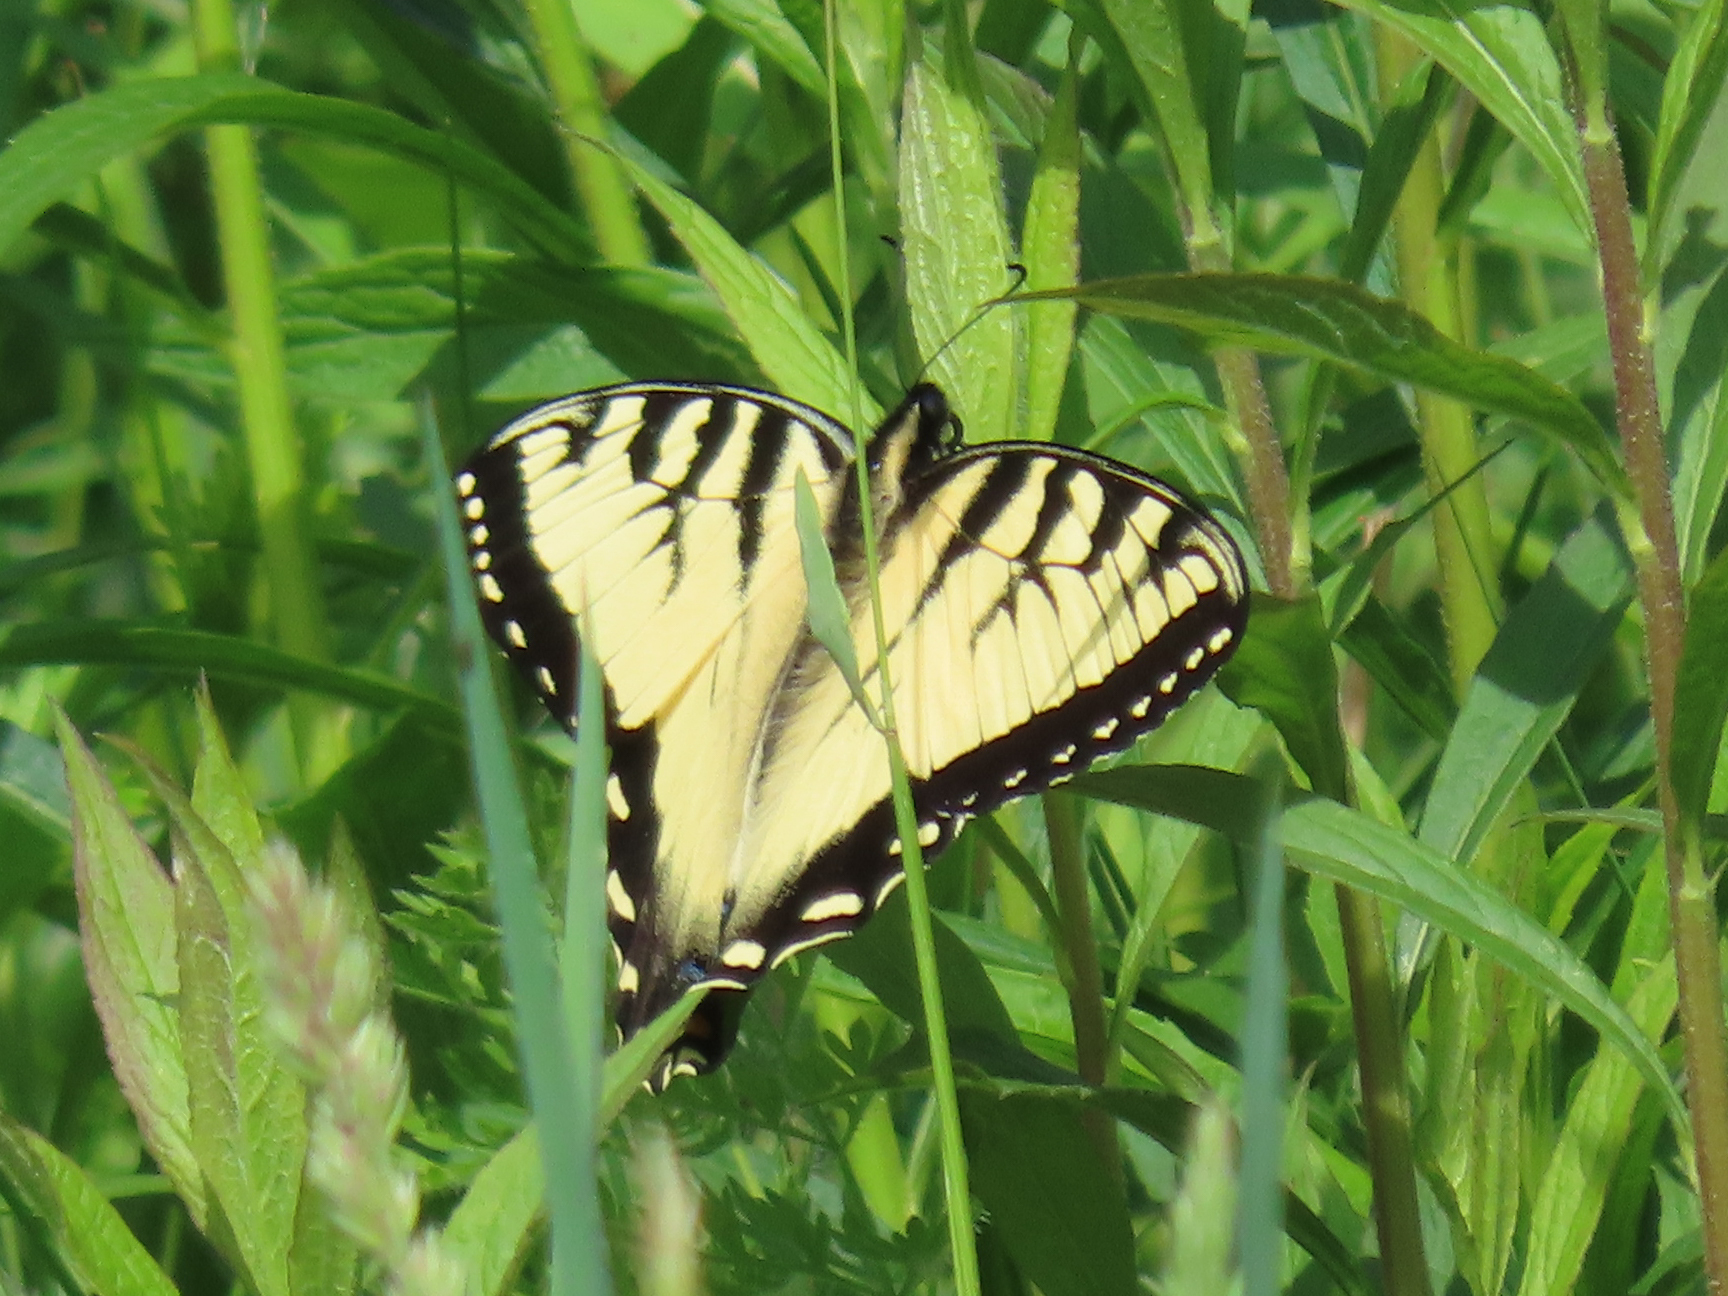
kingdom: Animalia
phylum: Arthropoda
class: Insecta
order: Lepidoptera
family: Papilionidae
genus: Papilio
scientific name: Papilio glaucus
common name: Tiger swallowtail
